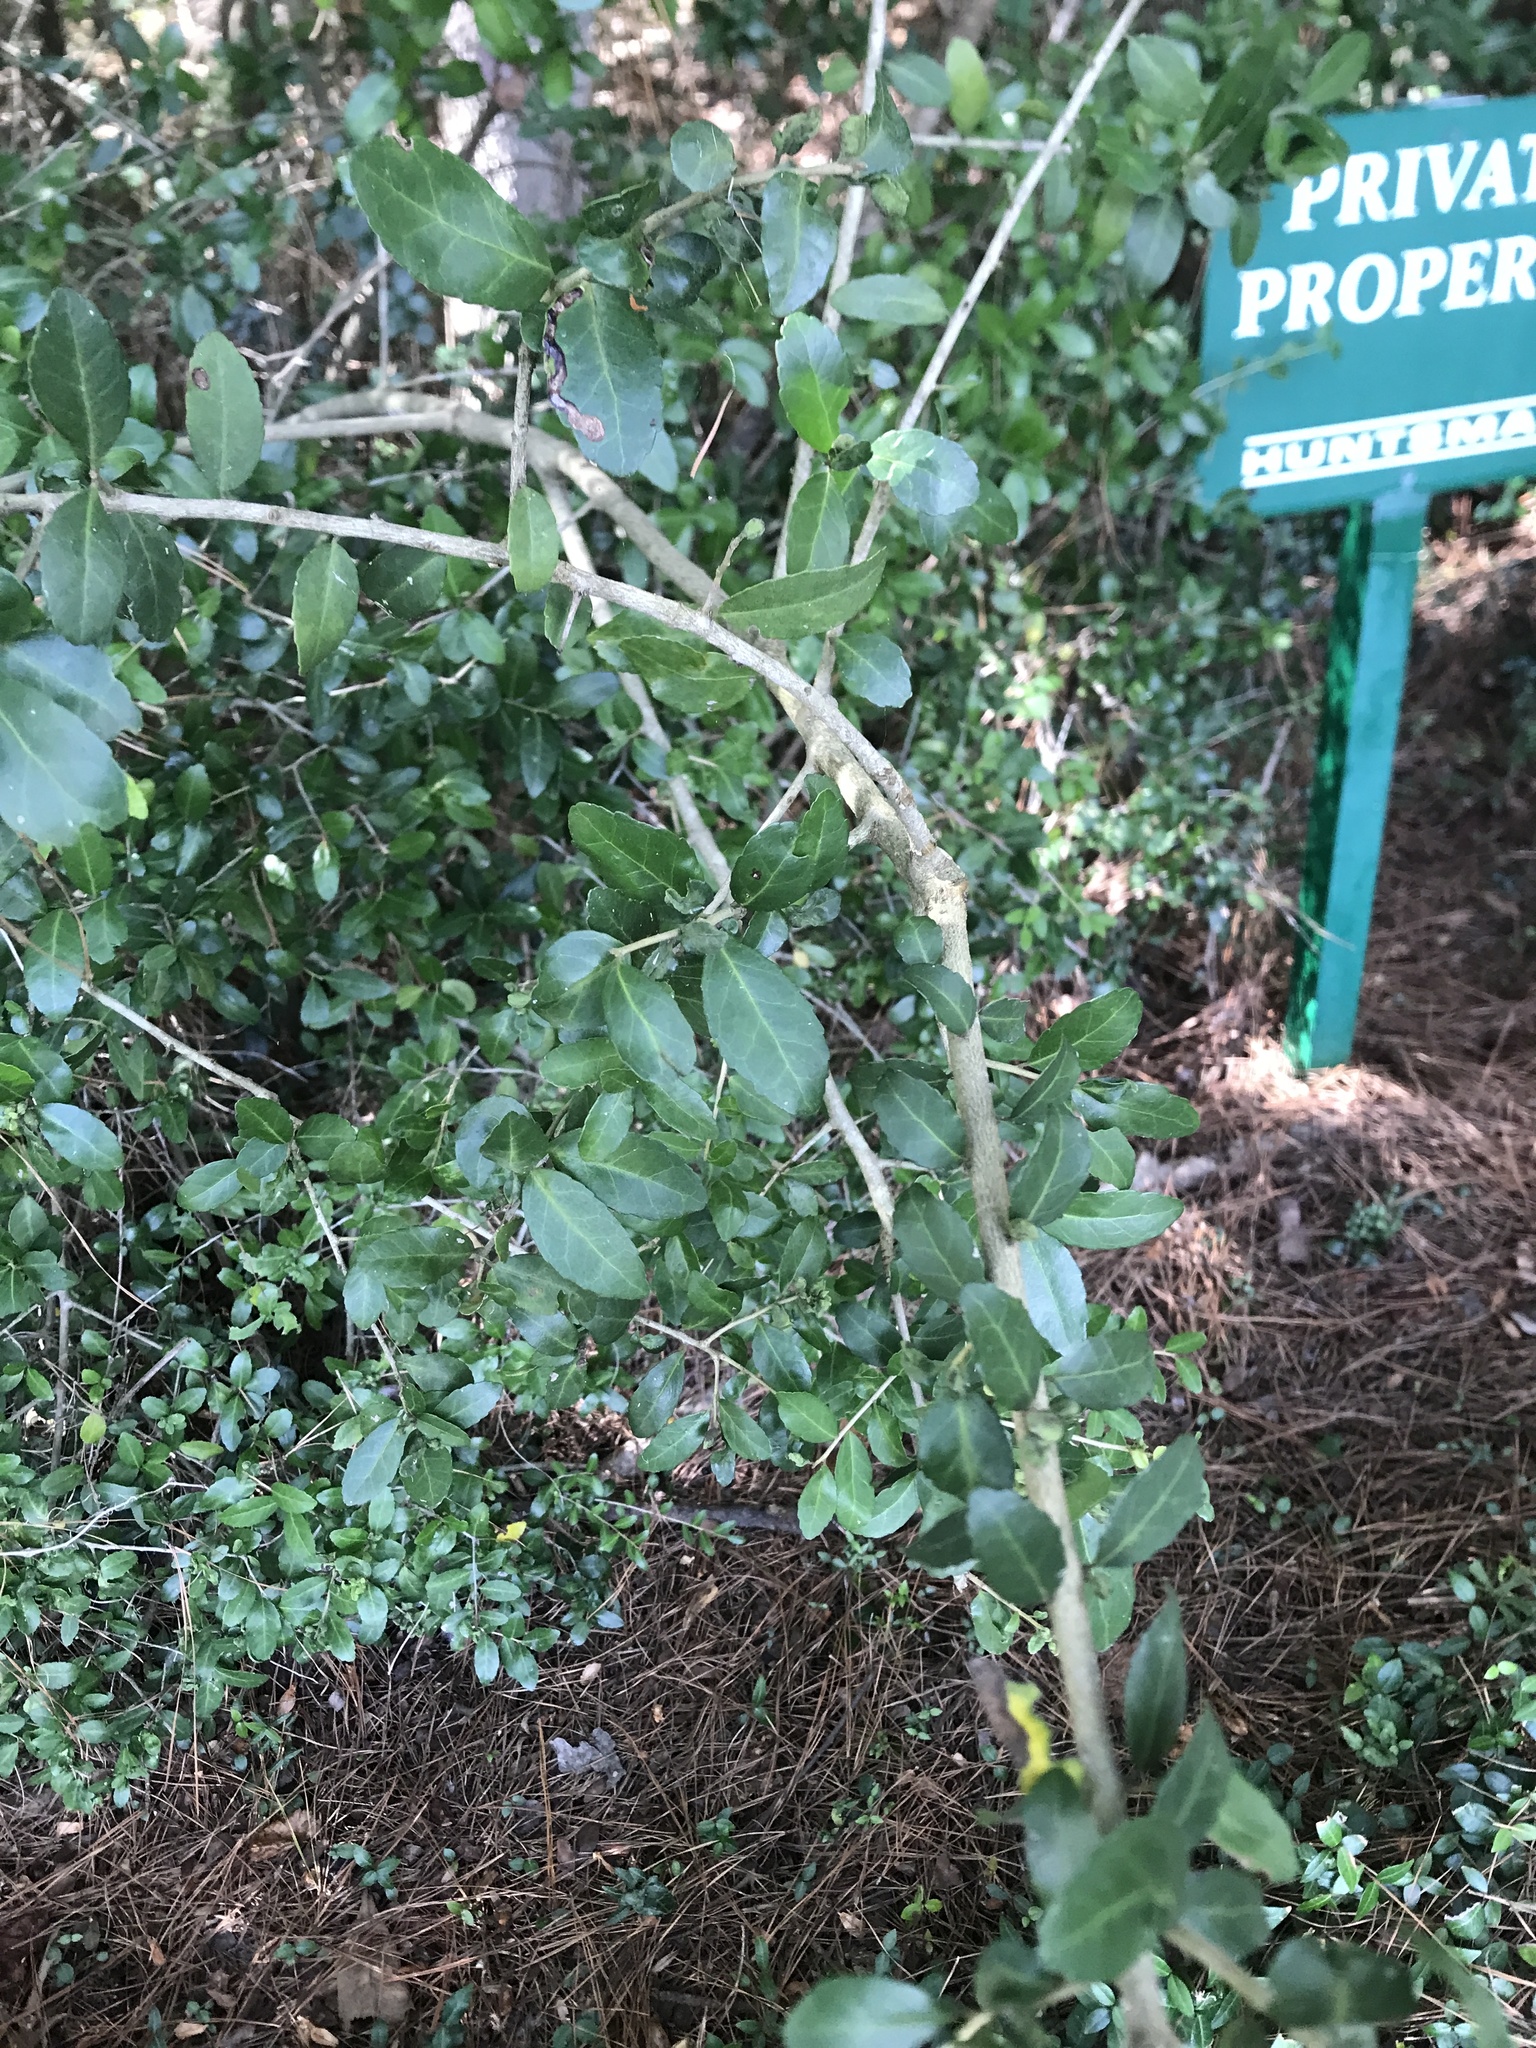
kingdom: Plantae
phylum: Tracheophyta
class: Magnoliopsida
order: Aquifoliales
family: Aquifoliaceae
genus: Ilex
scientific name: Ilex vomitoria
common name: Yaupon holly
